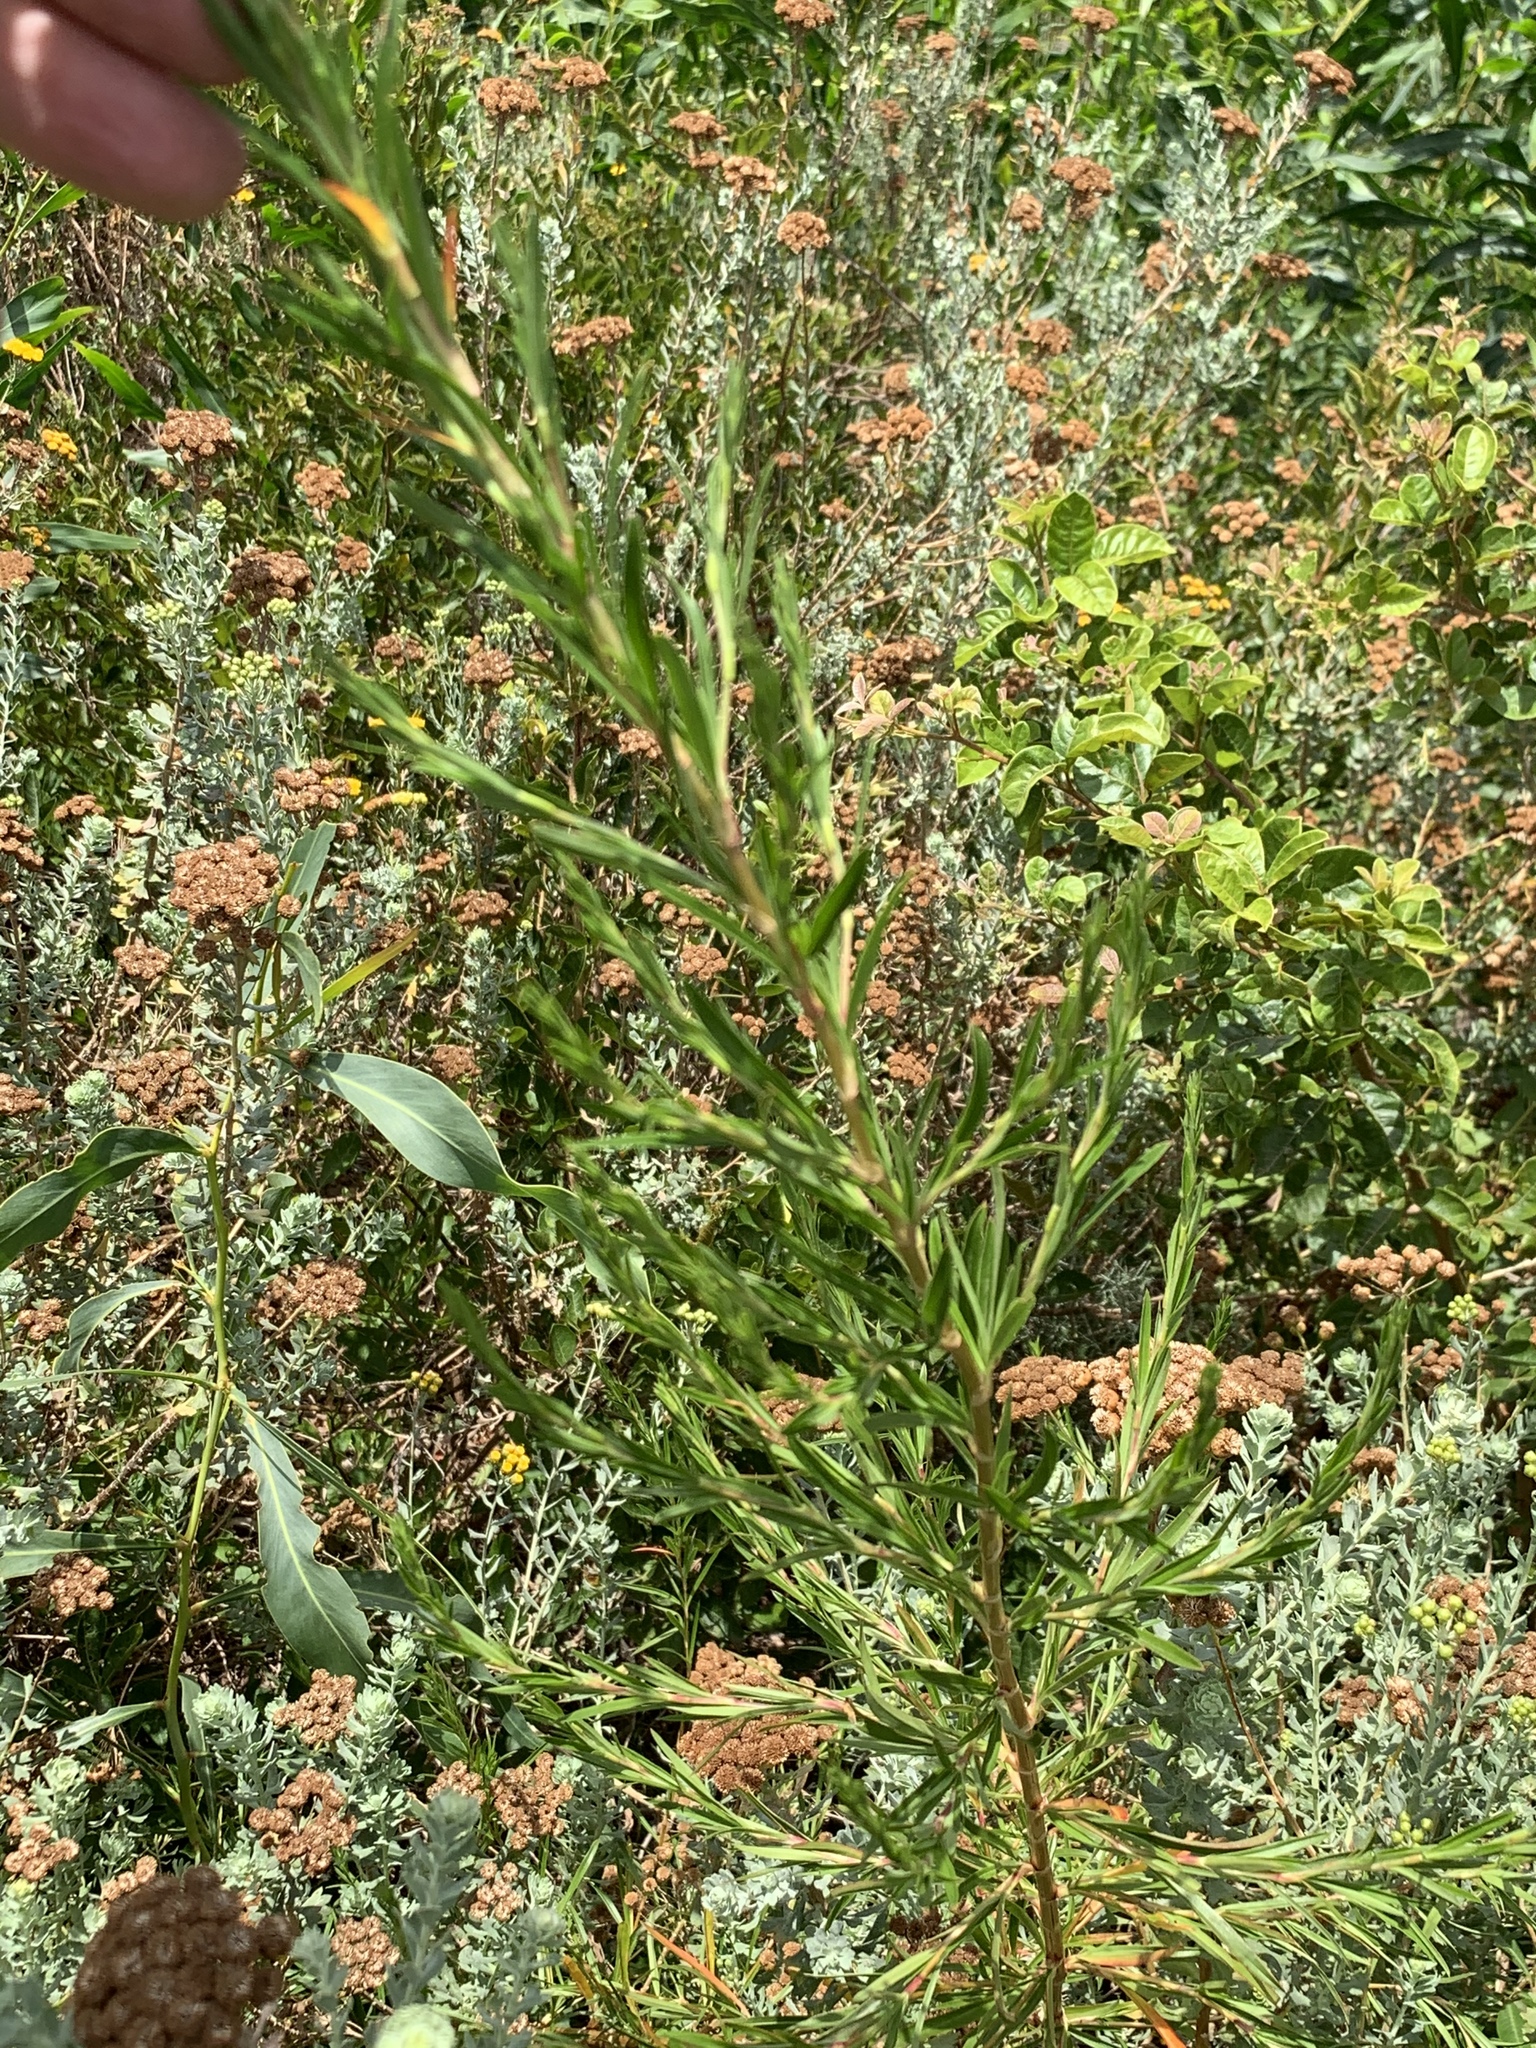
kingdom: Plantae
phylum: Tracheophyta
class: Magnoliopsida
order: Rosales
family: Rosaceae
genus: Cliffortia
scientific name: Cliffortia strobilifera
